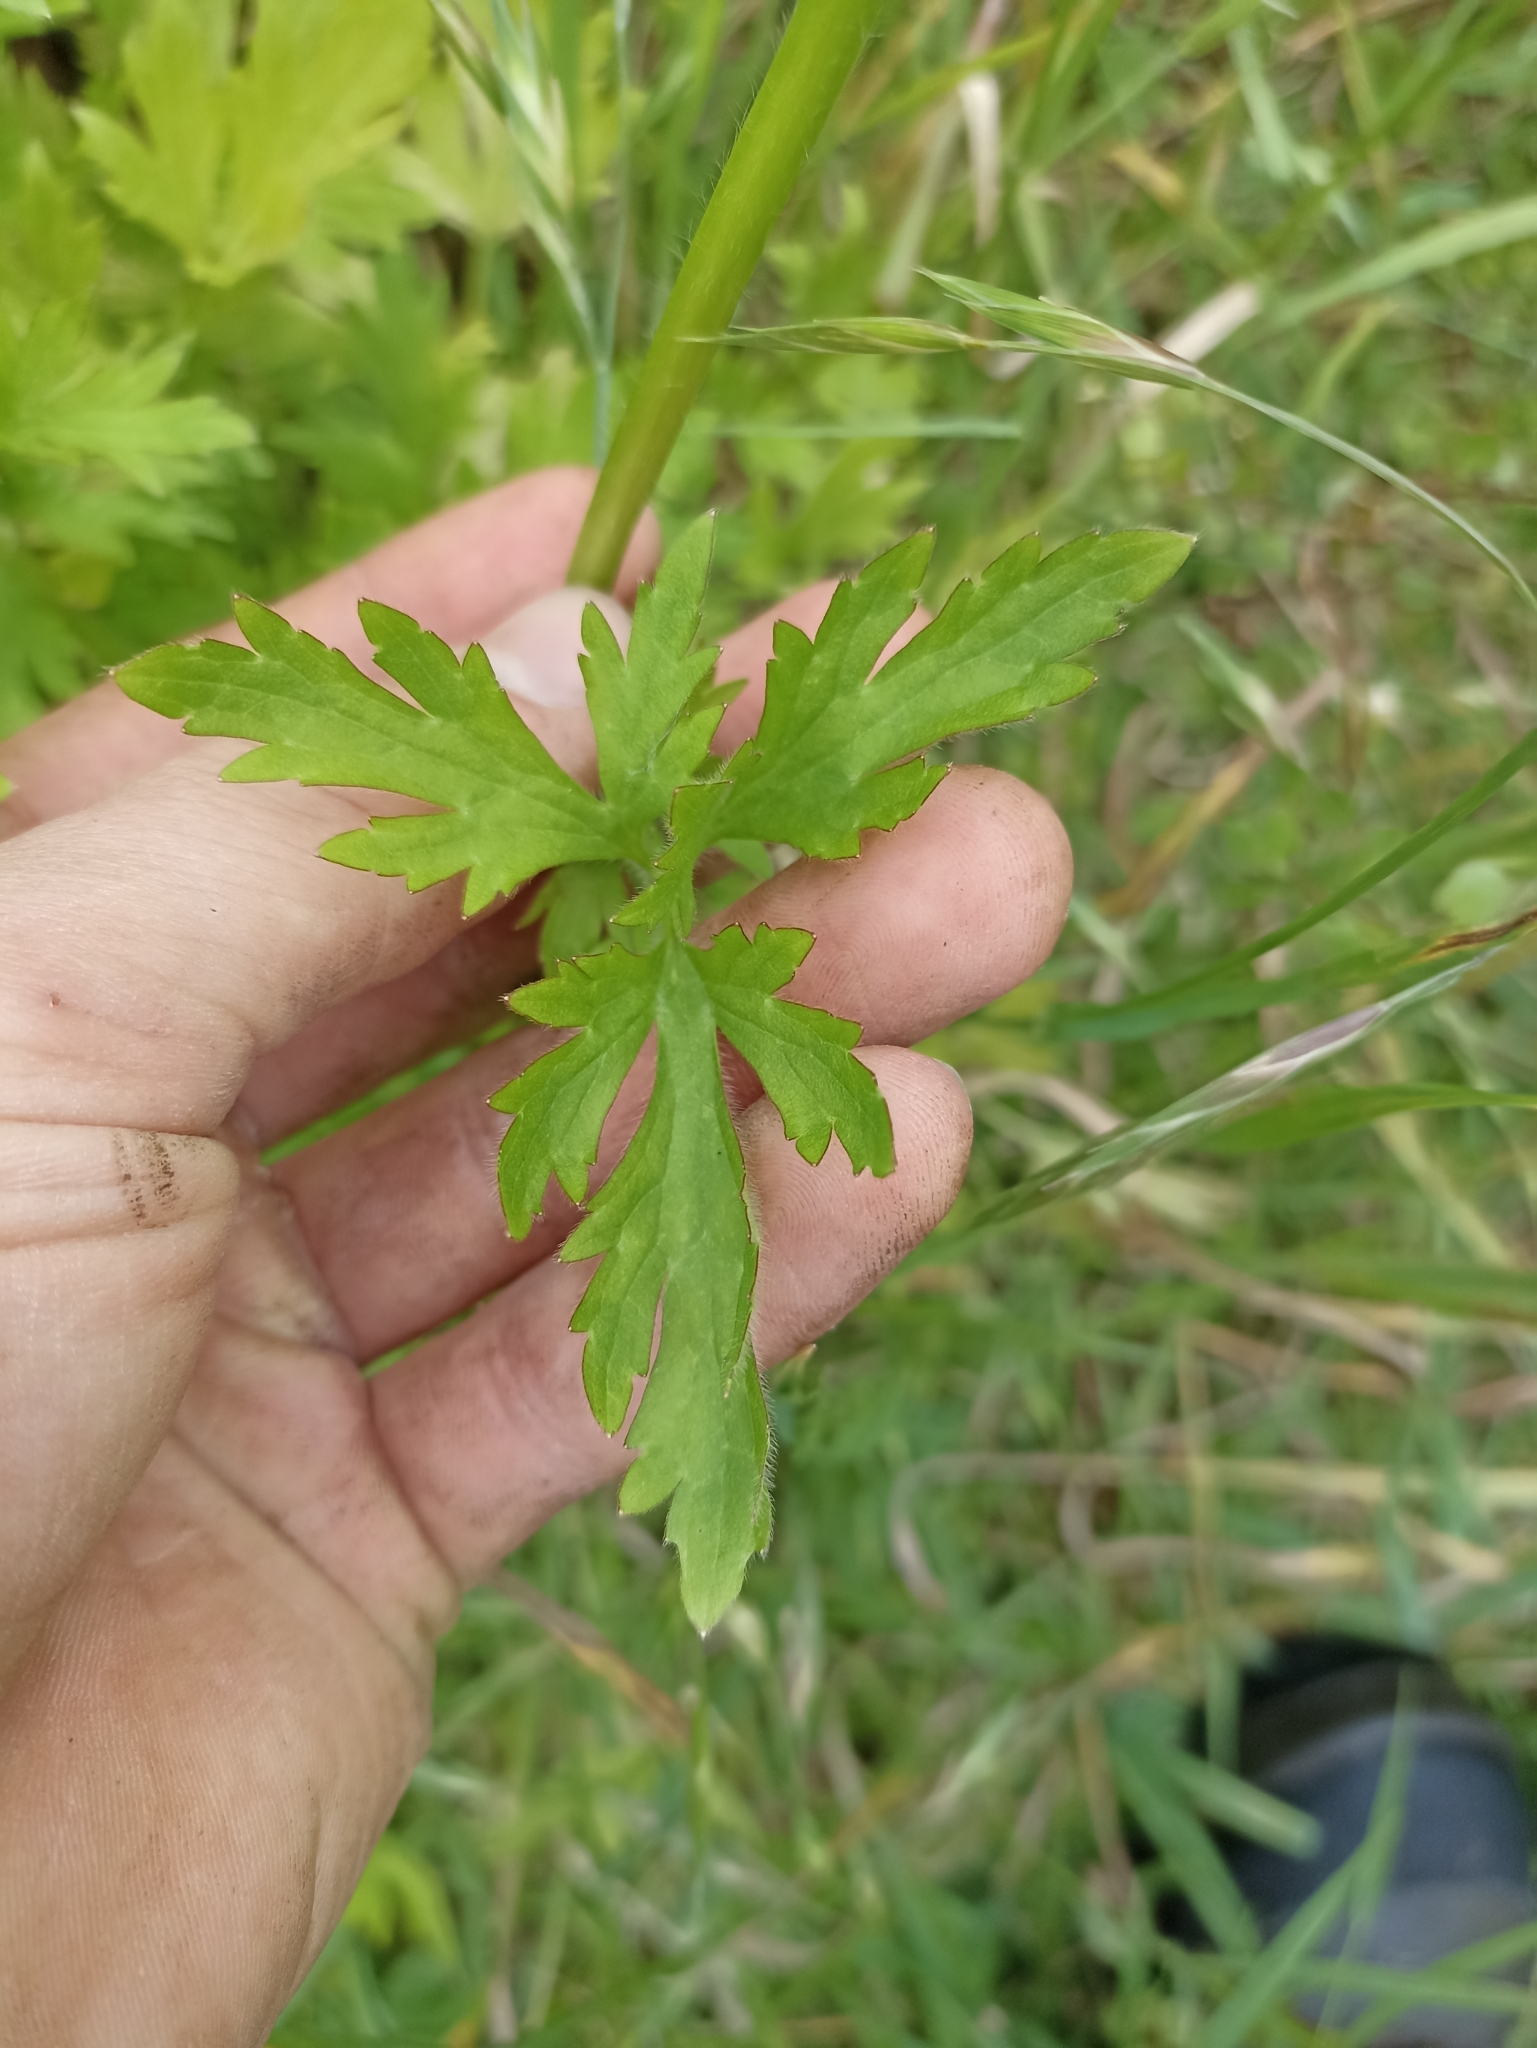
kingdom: Plantae
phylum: Tracheophyta
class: Magnoliopsida
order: Ranunculales
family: Ranunculaceae
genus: Ranunculus
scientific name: Ranunculus sceleratus
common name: Celery-leaved buttercup
